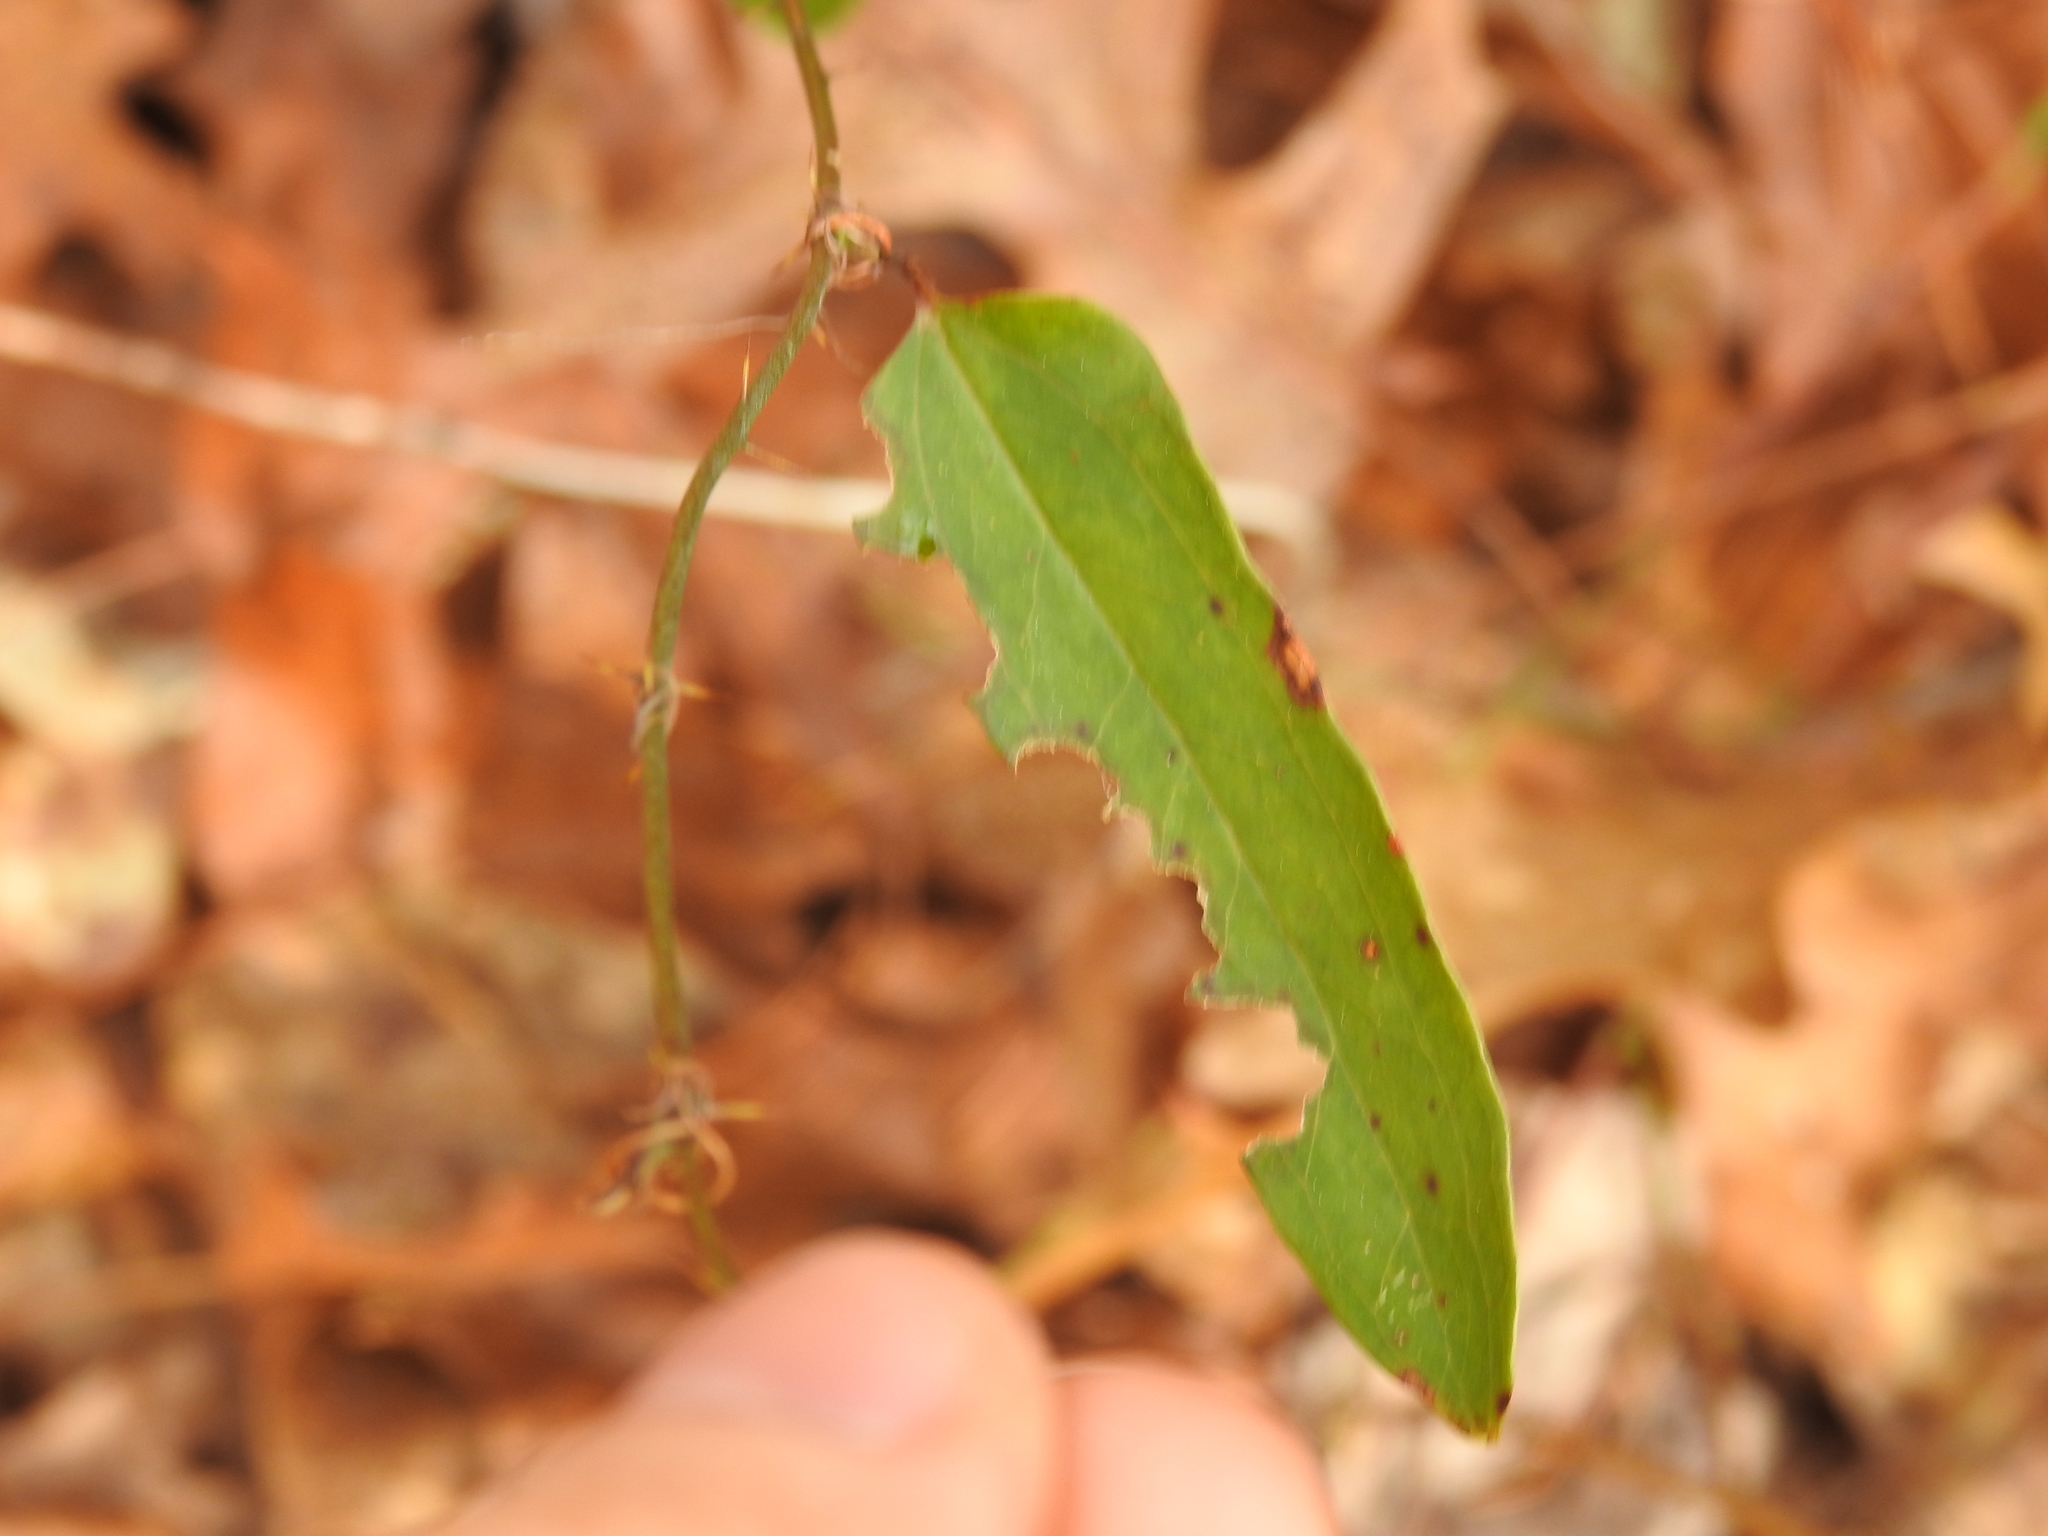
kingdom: Plantae
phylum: Tracheophyta
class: Liliopsida
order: Liliales
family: Smilacaceae
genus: Smilax
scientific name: Smilax glauca
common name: Cat greenbrier
